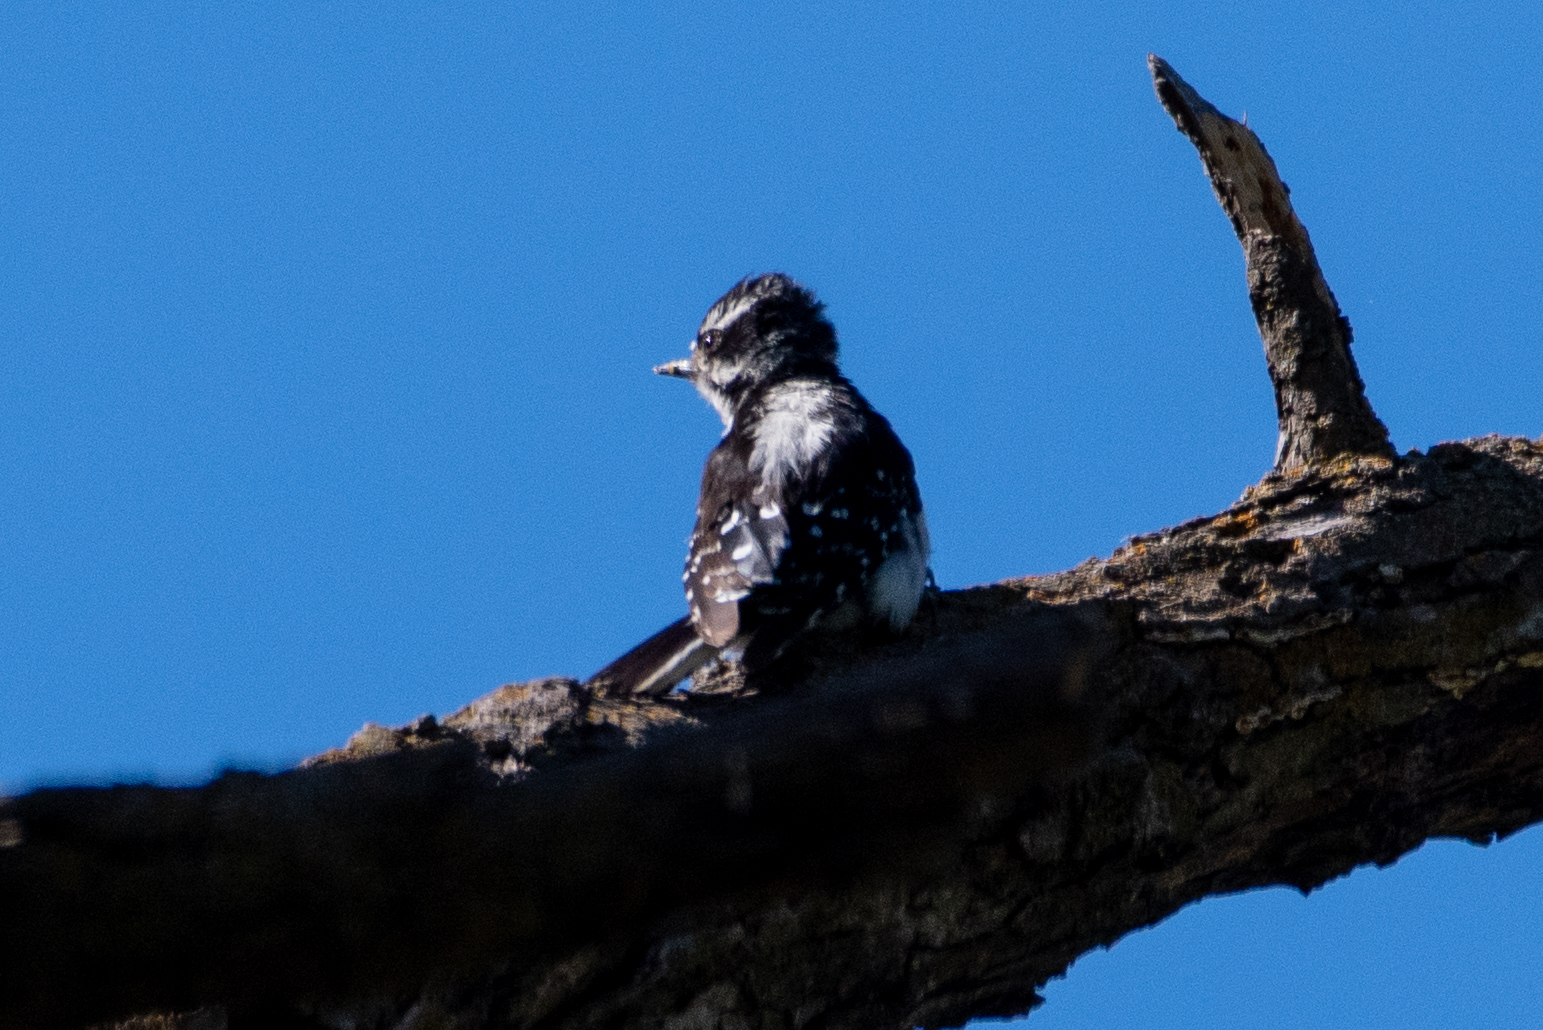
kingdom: Animalia
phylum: Chordata
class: Aves
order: Piciformes
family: Picidae
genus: Dryobates
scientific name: Dryobates pubescens
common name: Downy woodpecker
